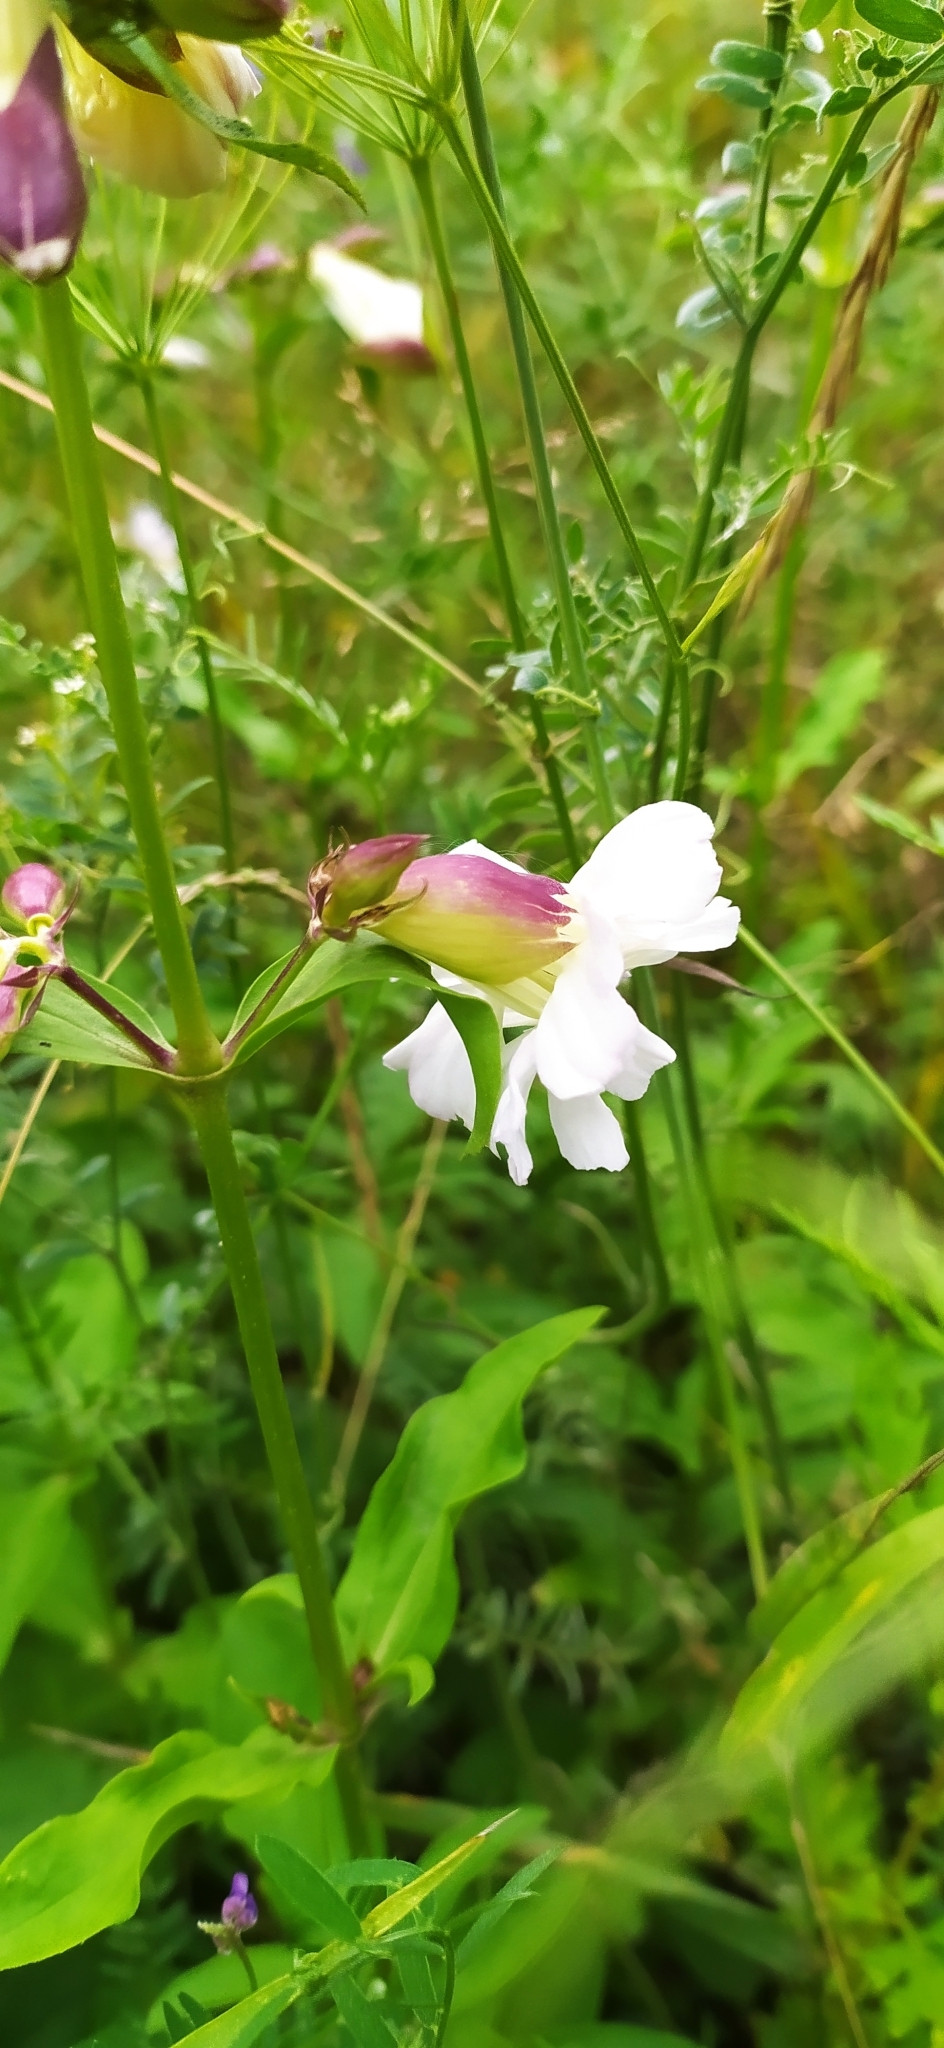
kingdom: Plantae
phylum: Tracheophyta
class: Magnoliopsida
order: Caryophyllales
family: Caryophyllaceae
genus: Saponaria
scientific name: Saponaria officinalis
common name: Soapwort
